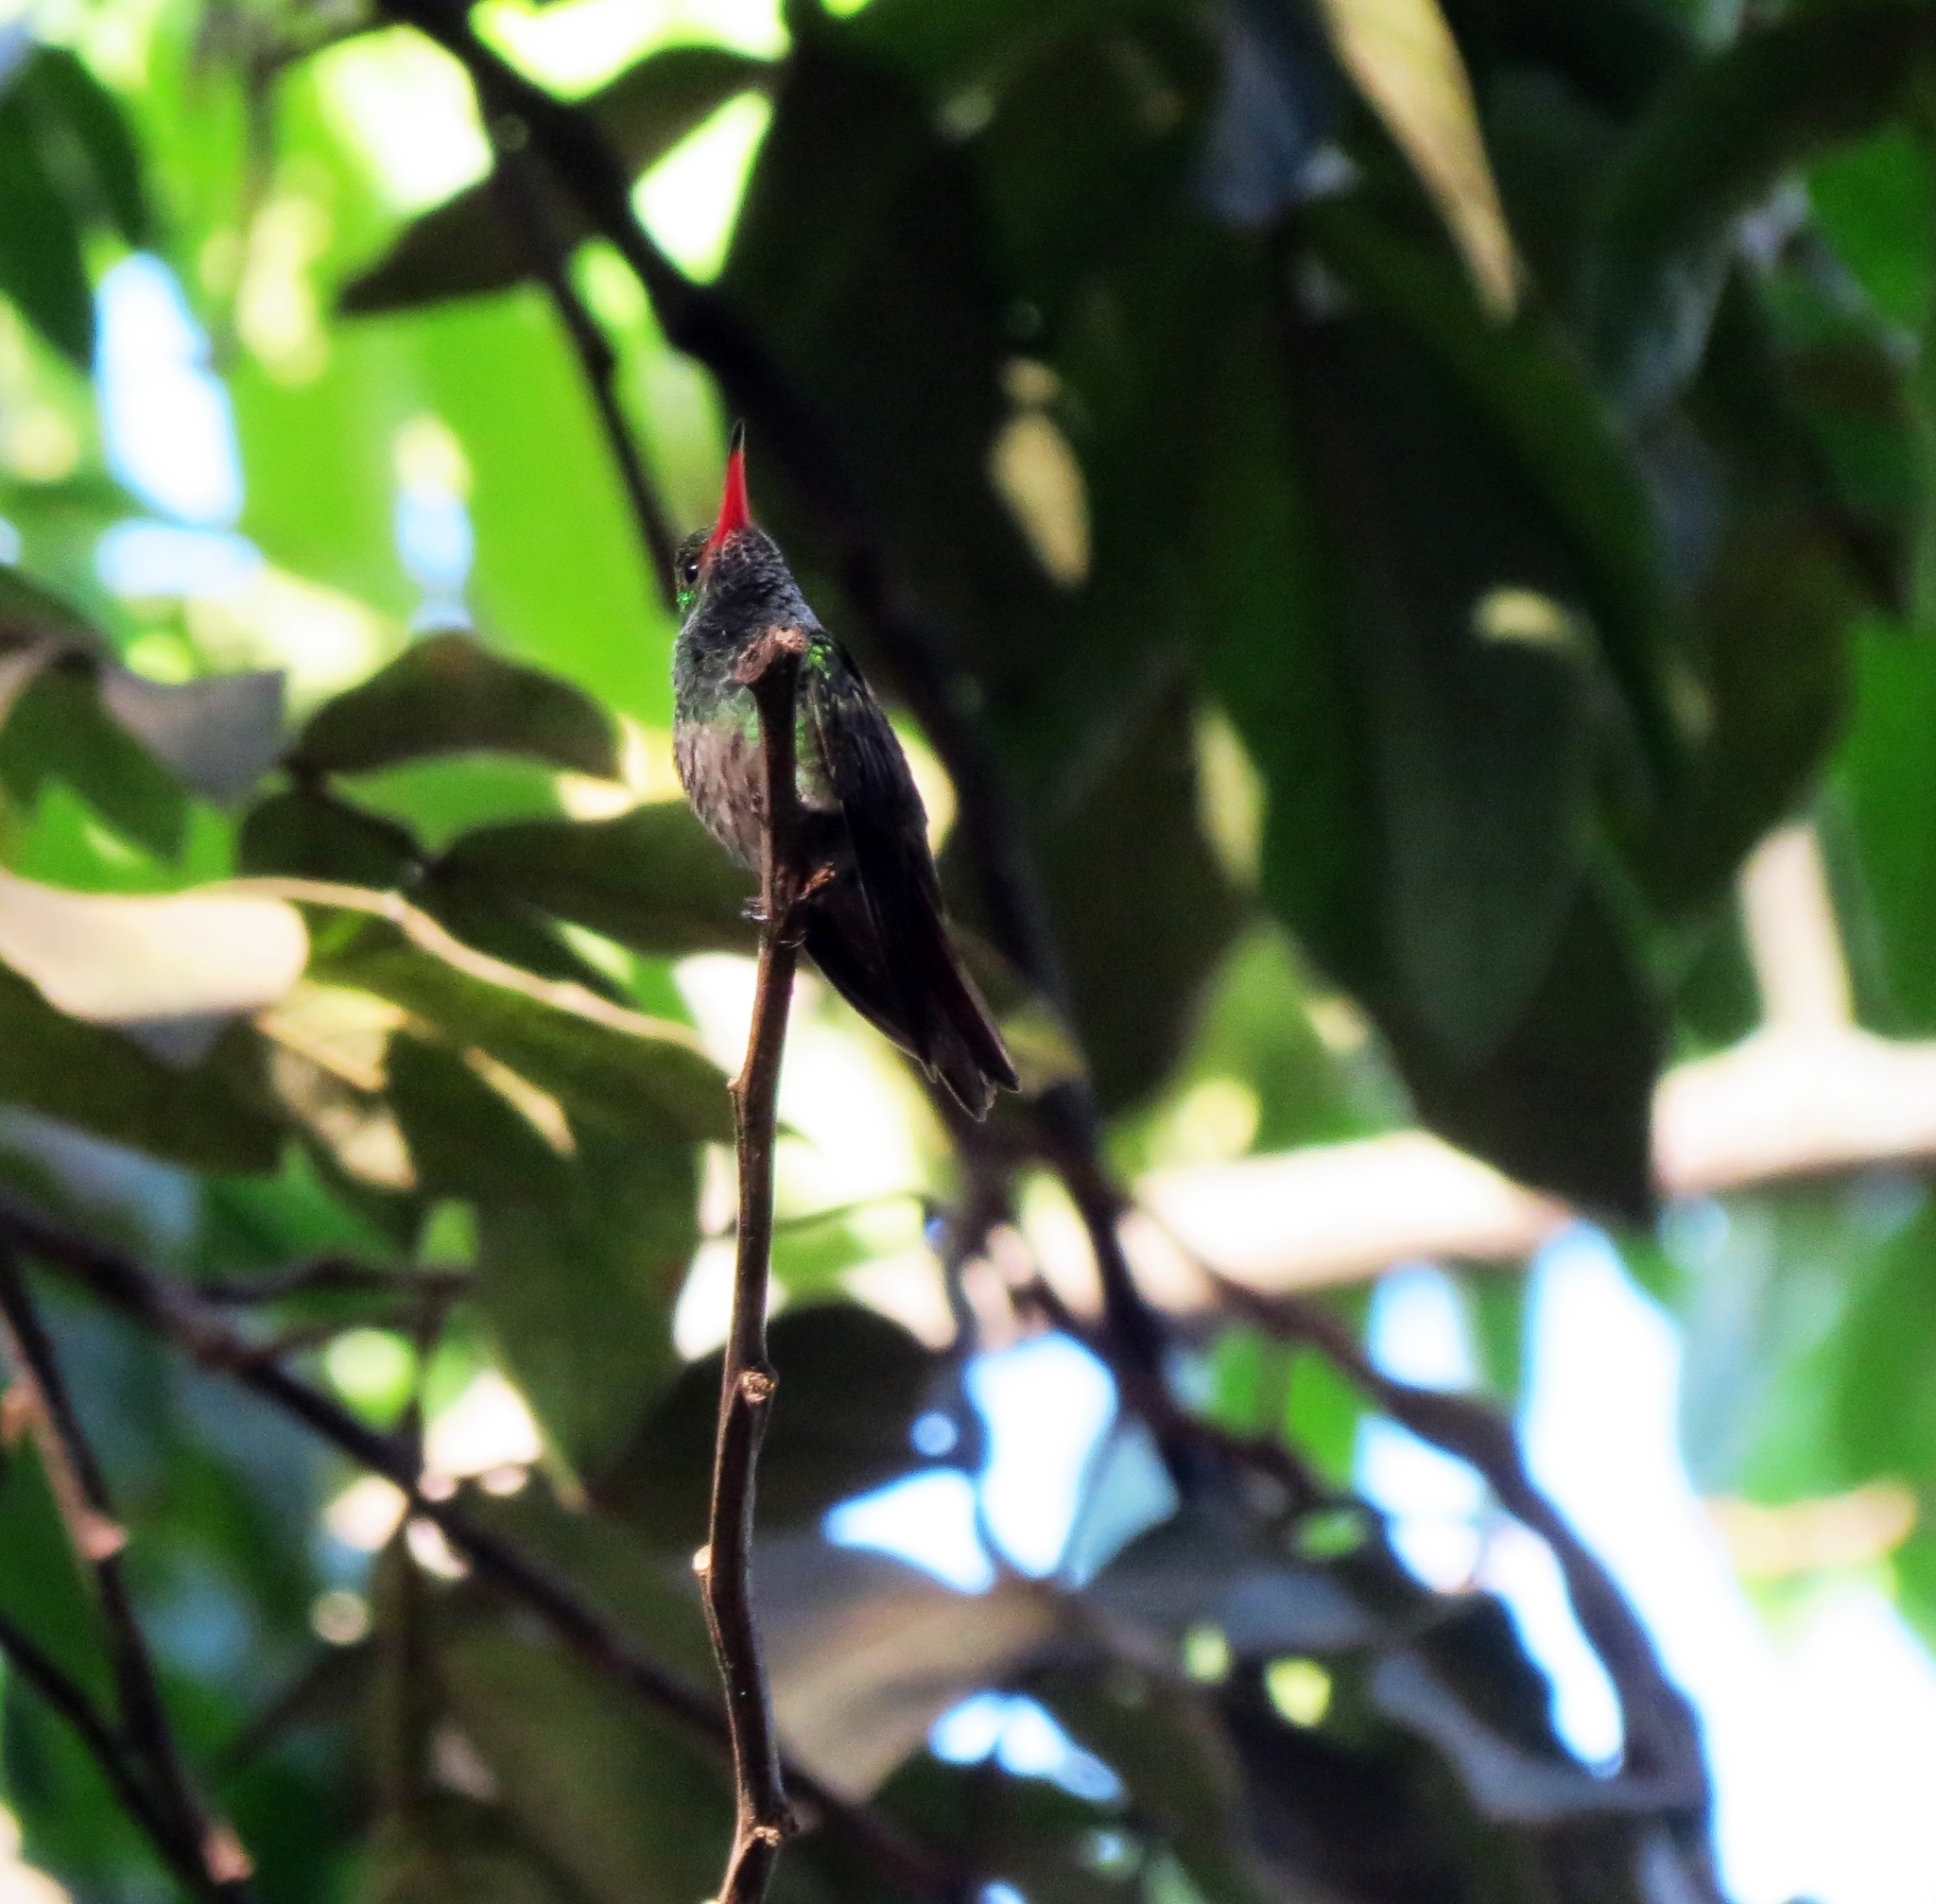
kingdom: Animalia
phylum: Chordata
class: Aves
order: Apodiformes
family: Trochilidae
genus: Amazilia
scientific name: Amazilia tzacatl
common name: Rufous-tailed hummingbird
